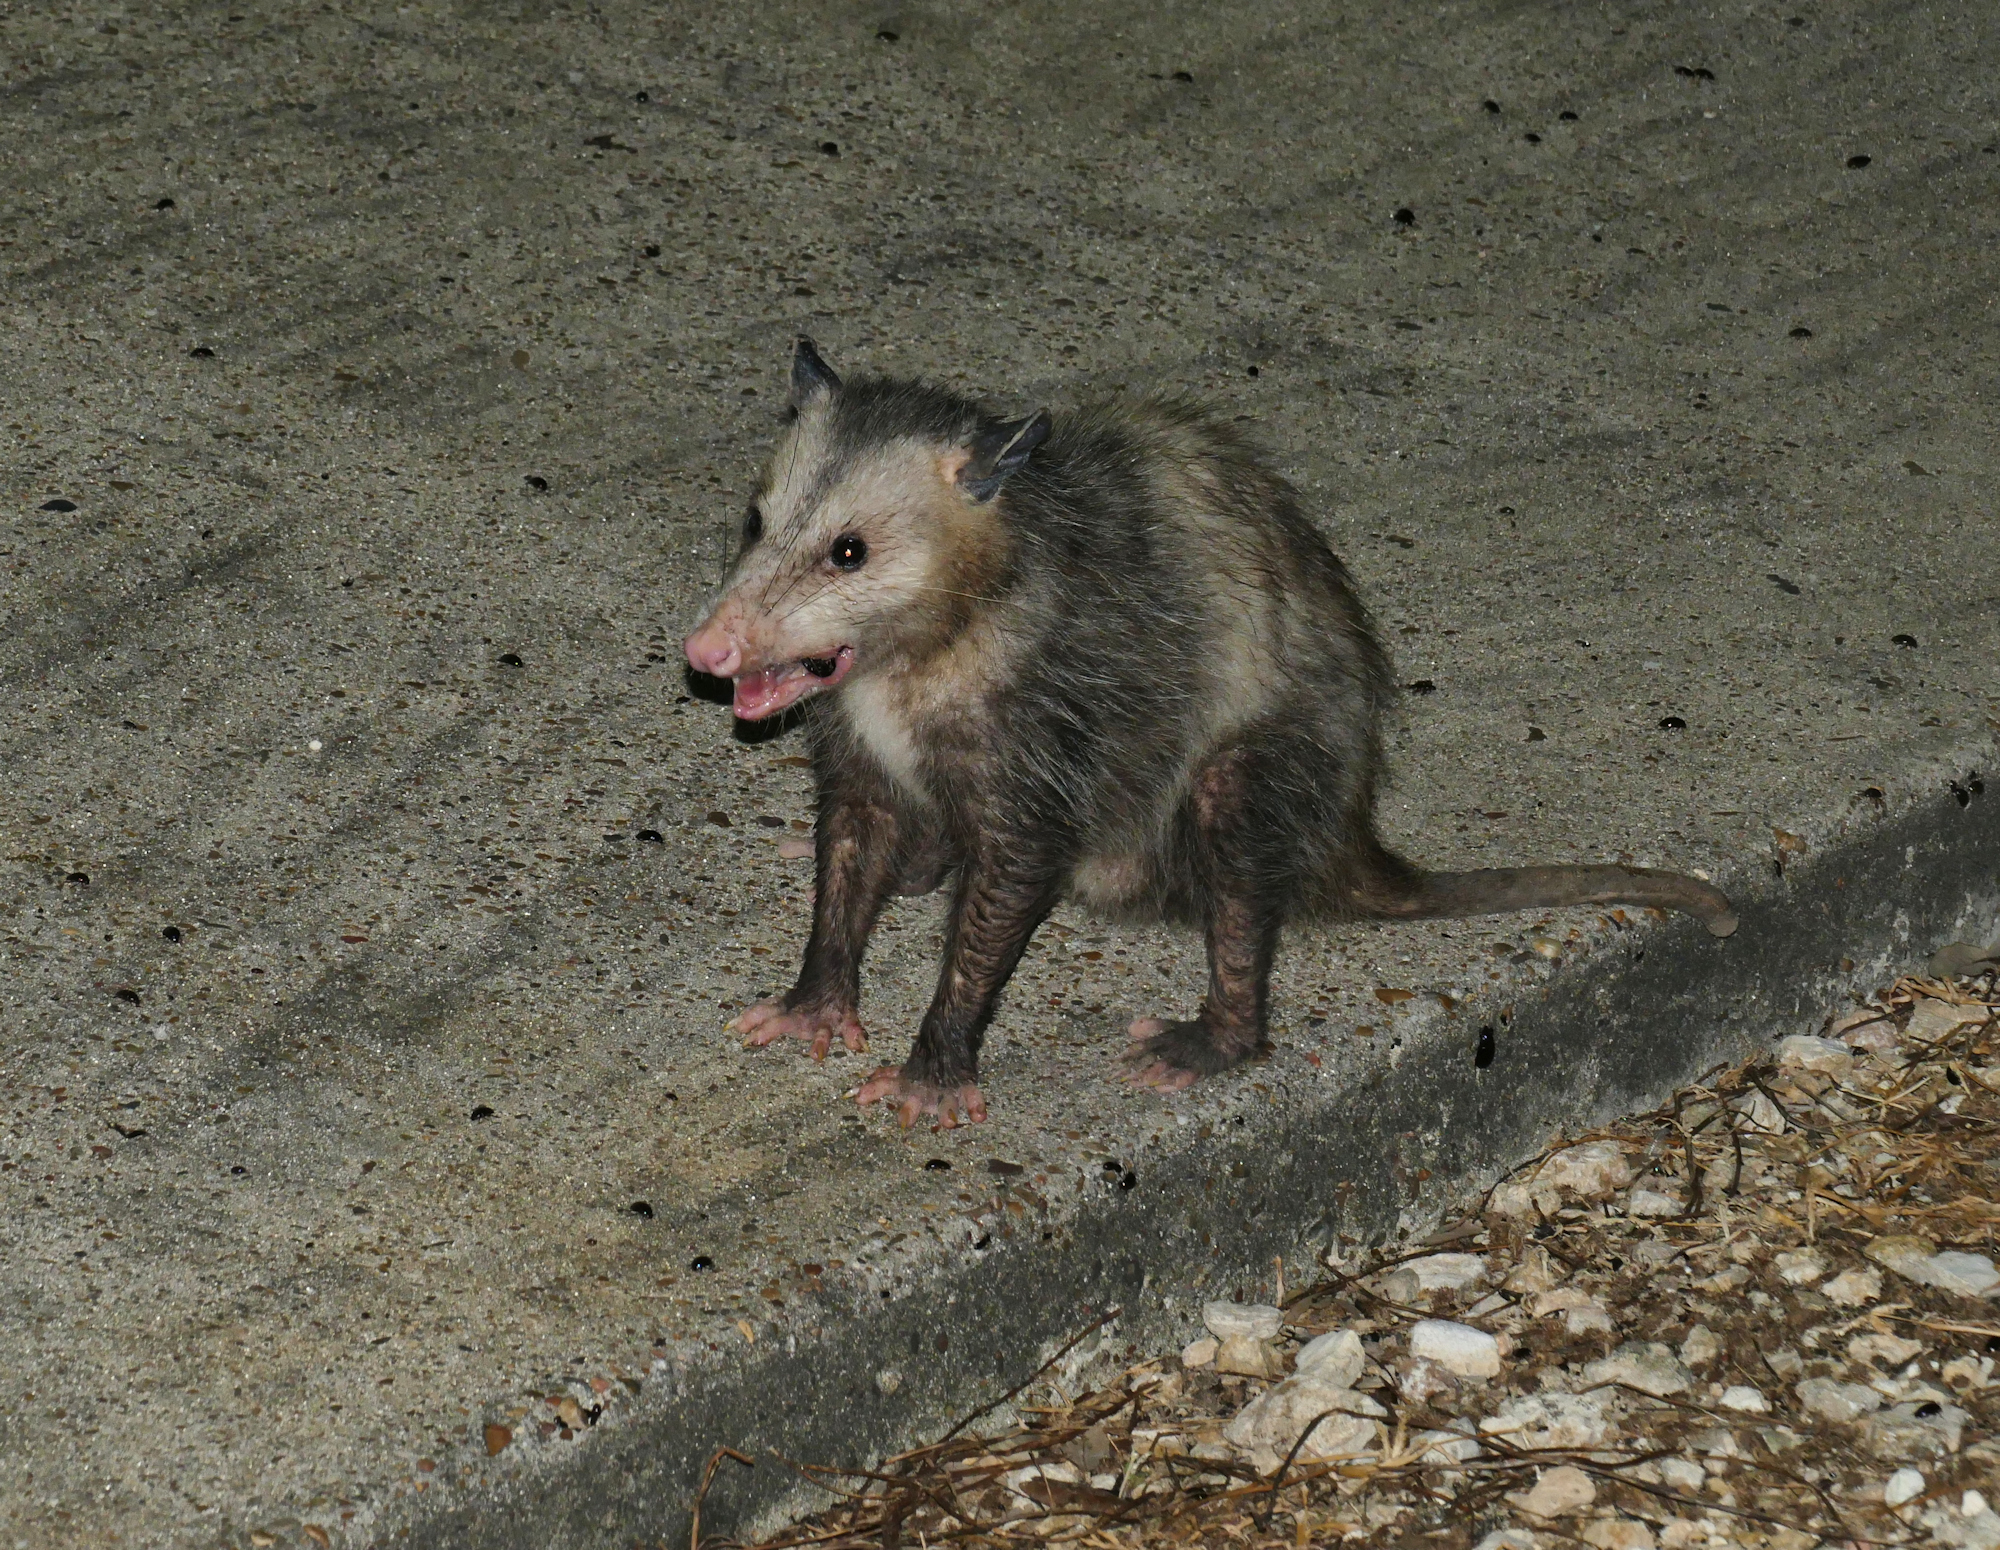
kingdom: Animalia
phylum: Chordata
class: Mammalia
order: Didelphimorphia
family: Didelphidae
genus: Didelphis
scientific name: Didelphis virginiana
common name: Virginia opossum
